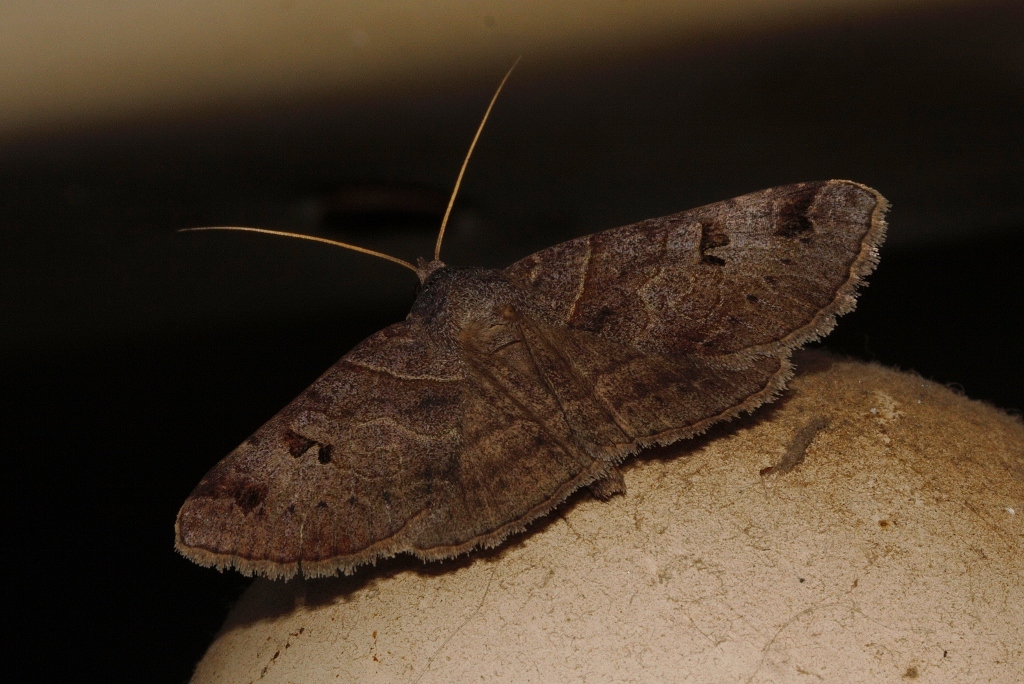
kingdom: Animalia
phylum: Arthropoda
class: Insecta
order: Lepidoptera
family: Erebidae
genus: Mocis
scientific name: Mocis mutuaria
